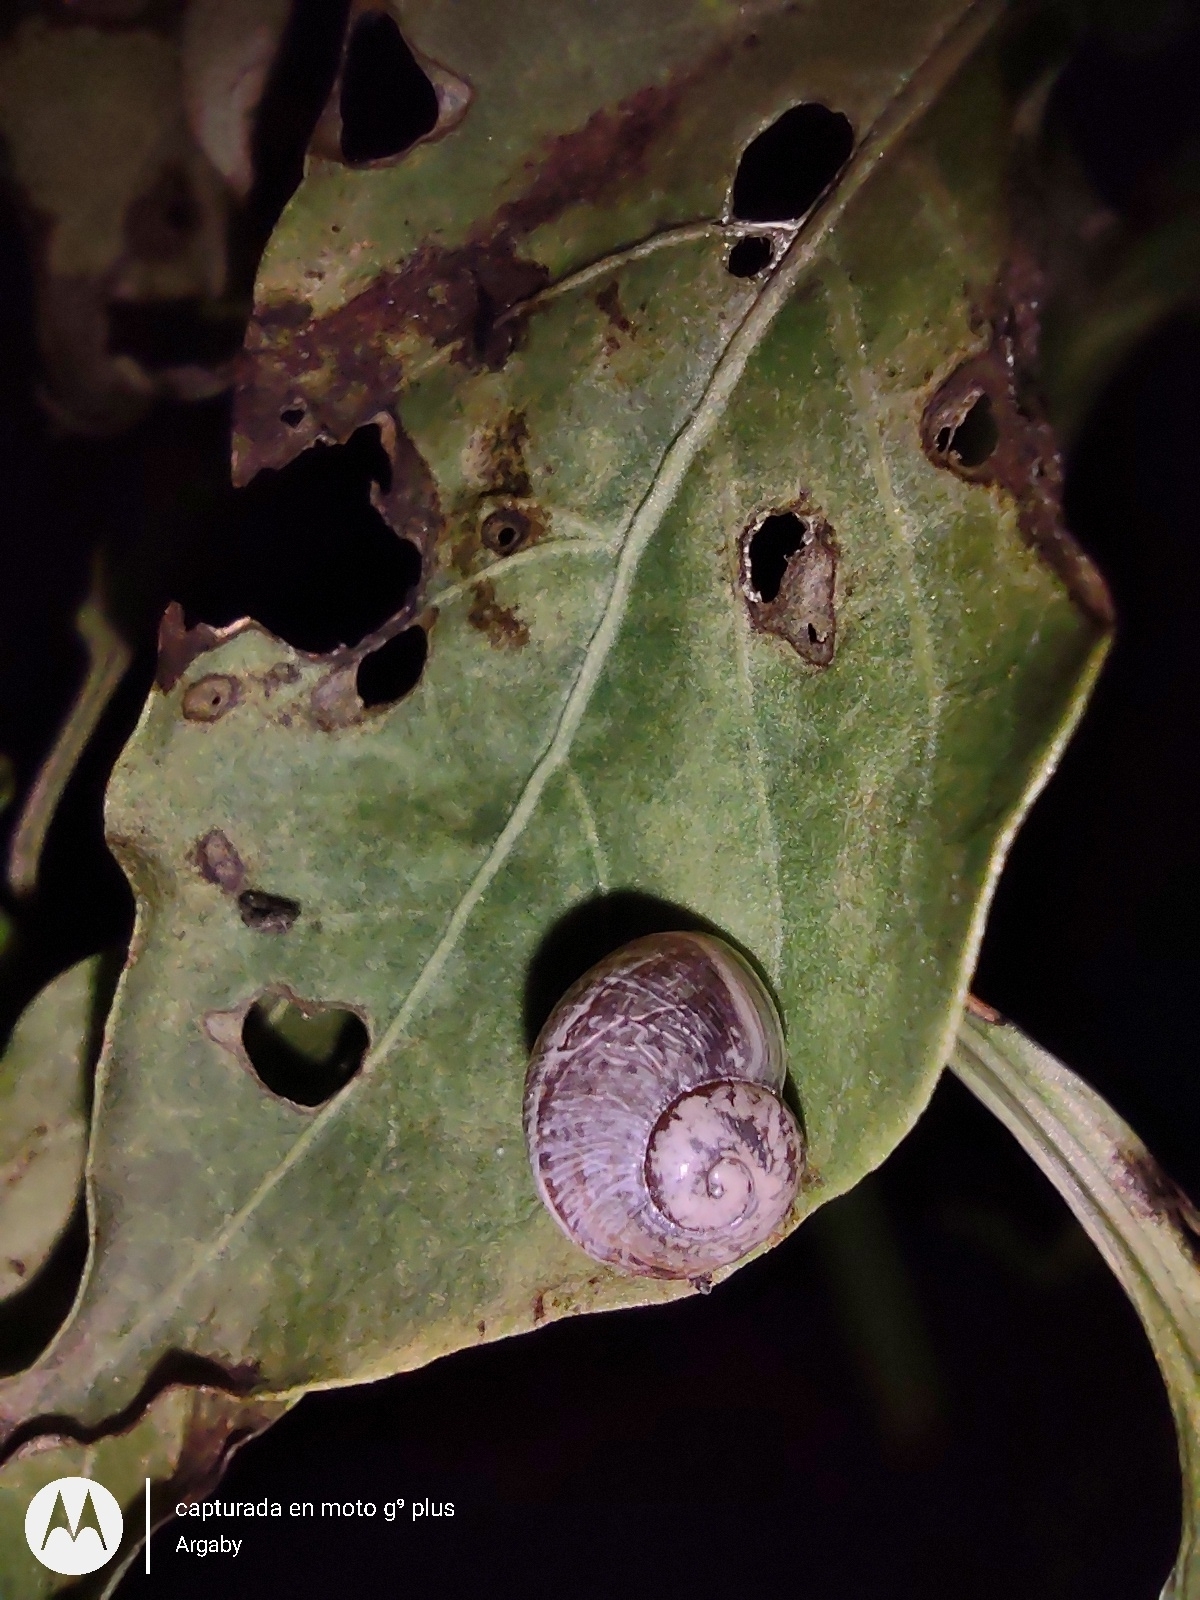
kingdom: Animalia
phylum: Mollusca
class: Gastropoda
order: Stylommatophora
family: Helicidae
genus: Cornu
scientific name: Cornu aspersum
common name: Brown garden snail
